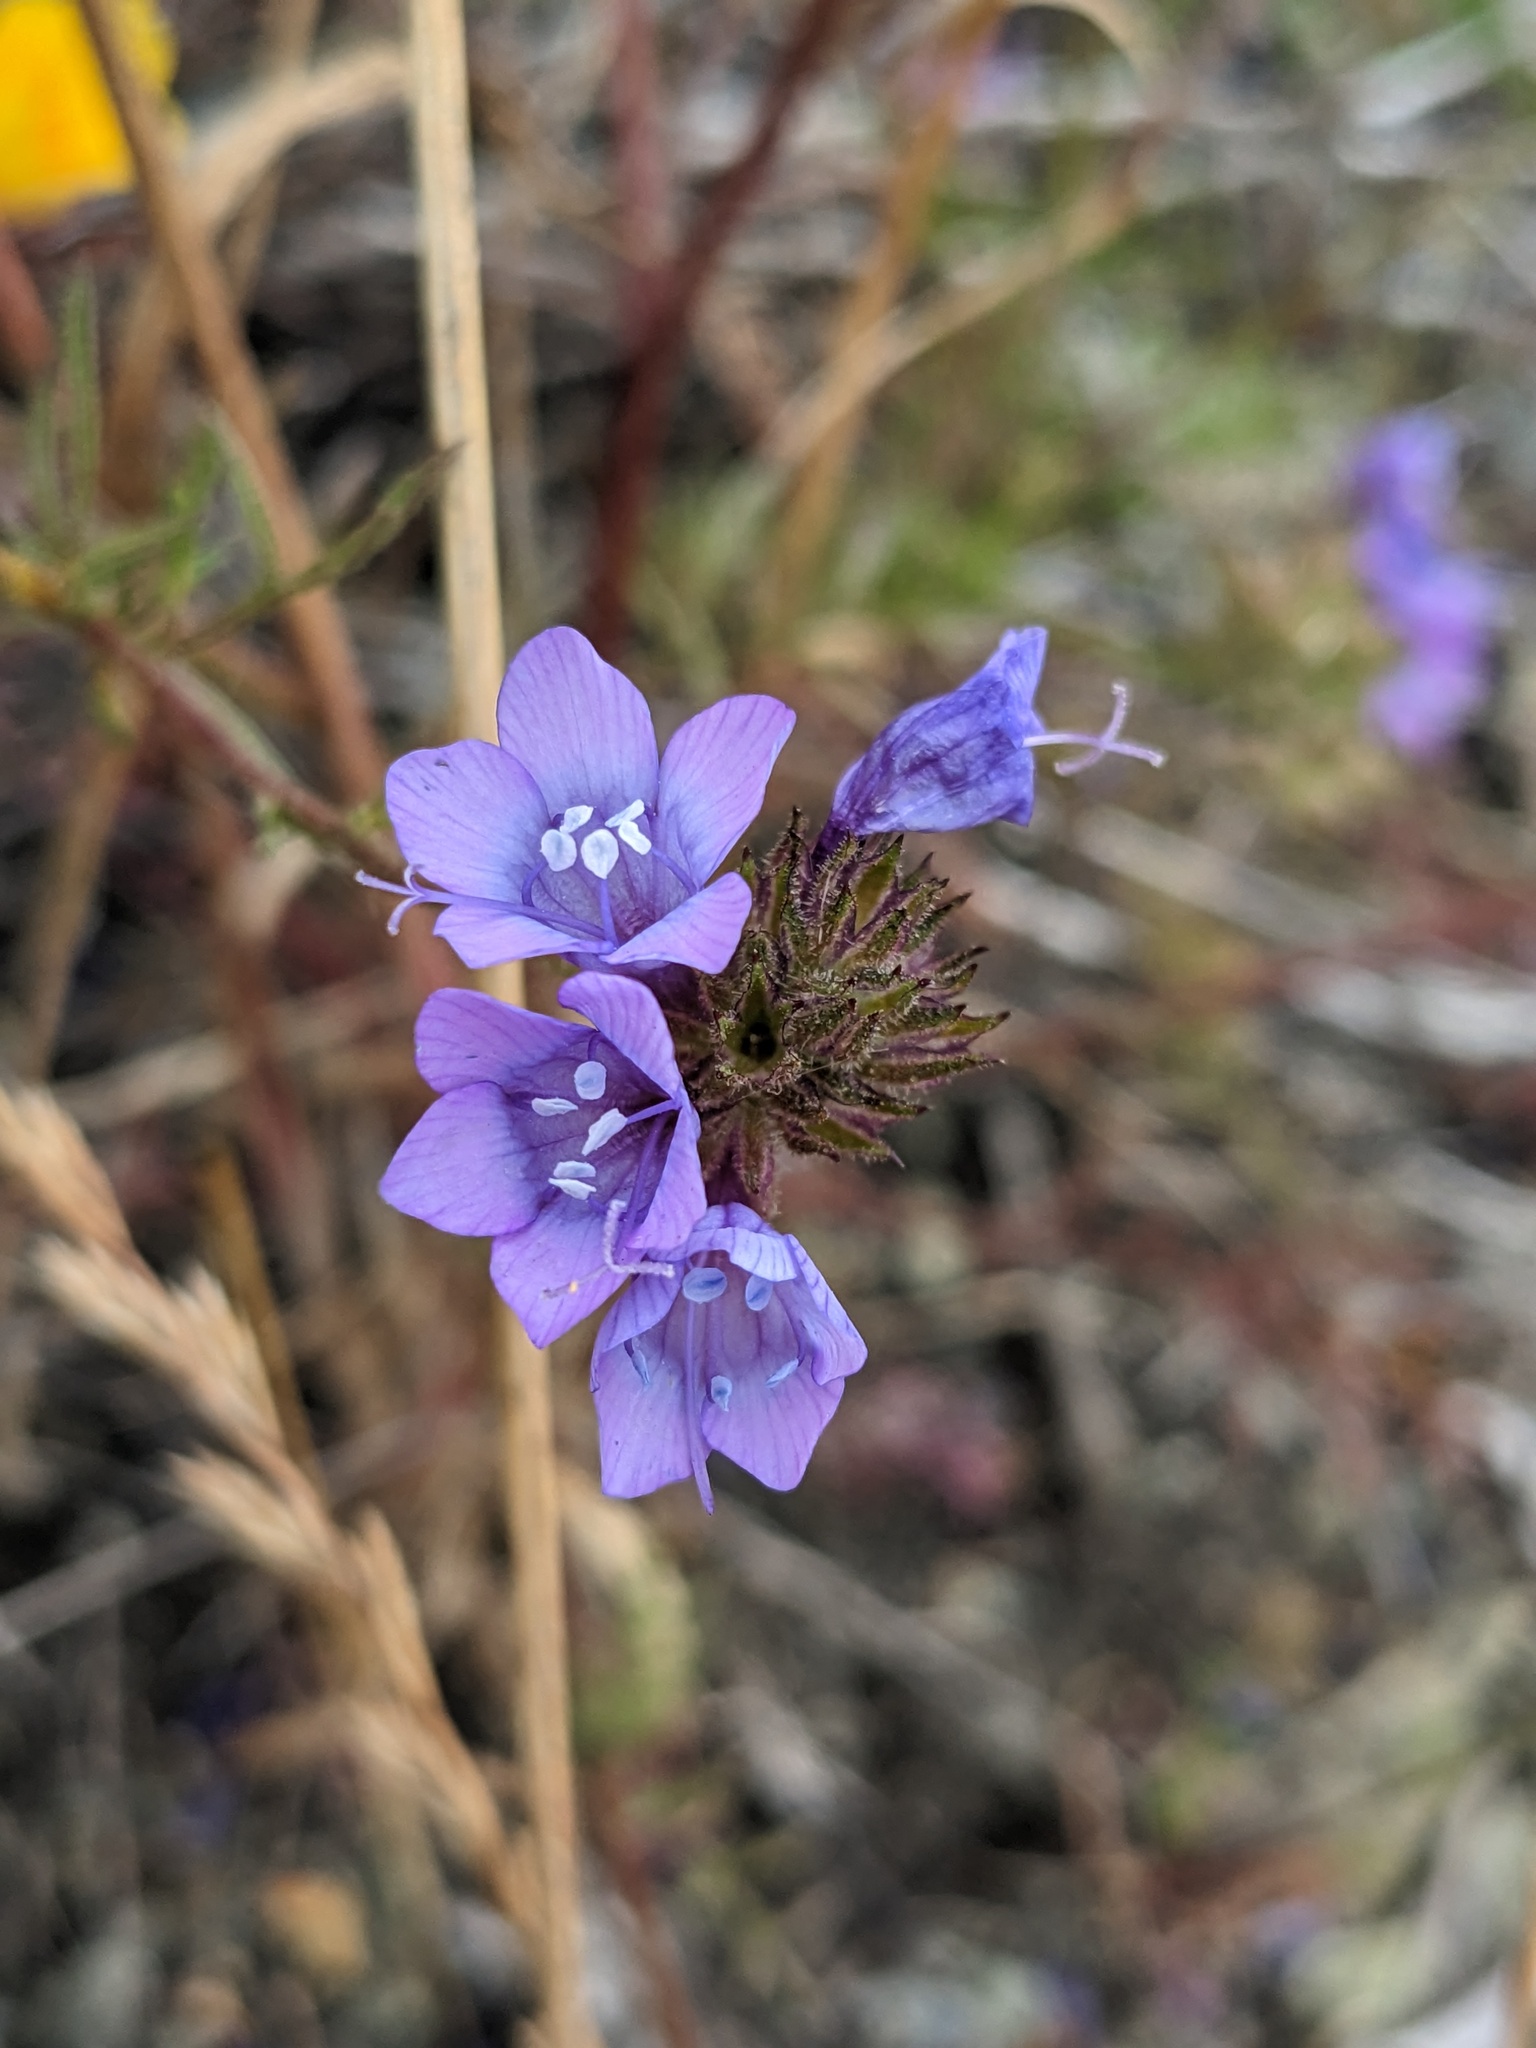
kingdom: Plantae
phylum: Tracheophyta
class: Magnoliopsida
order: Ericales
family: Polemoniaceae
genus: Gilia
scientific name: Gilia achilleifolia
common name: California gily-flower
